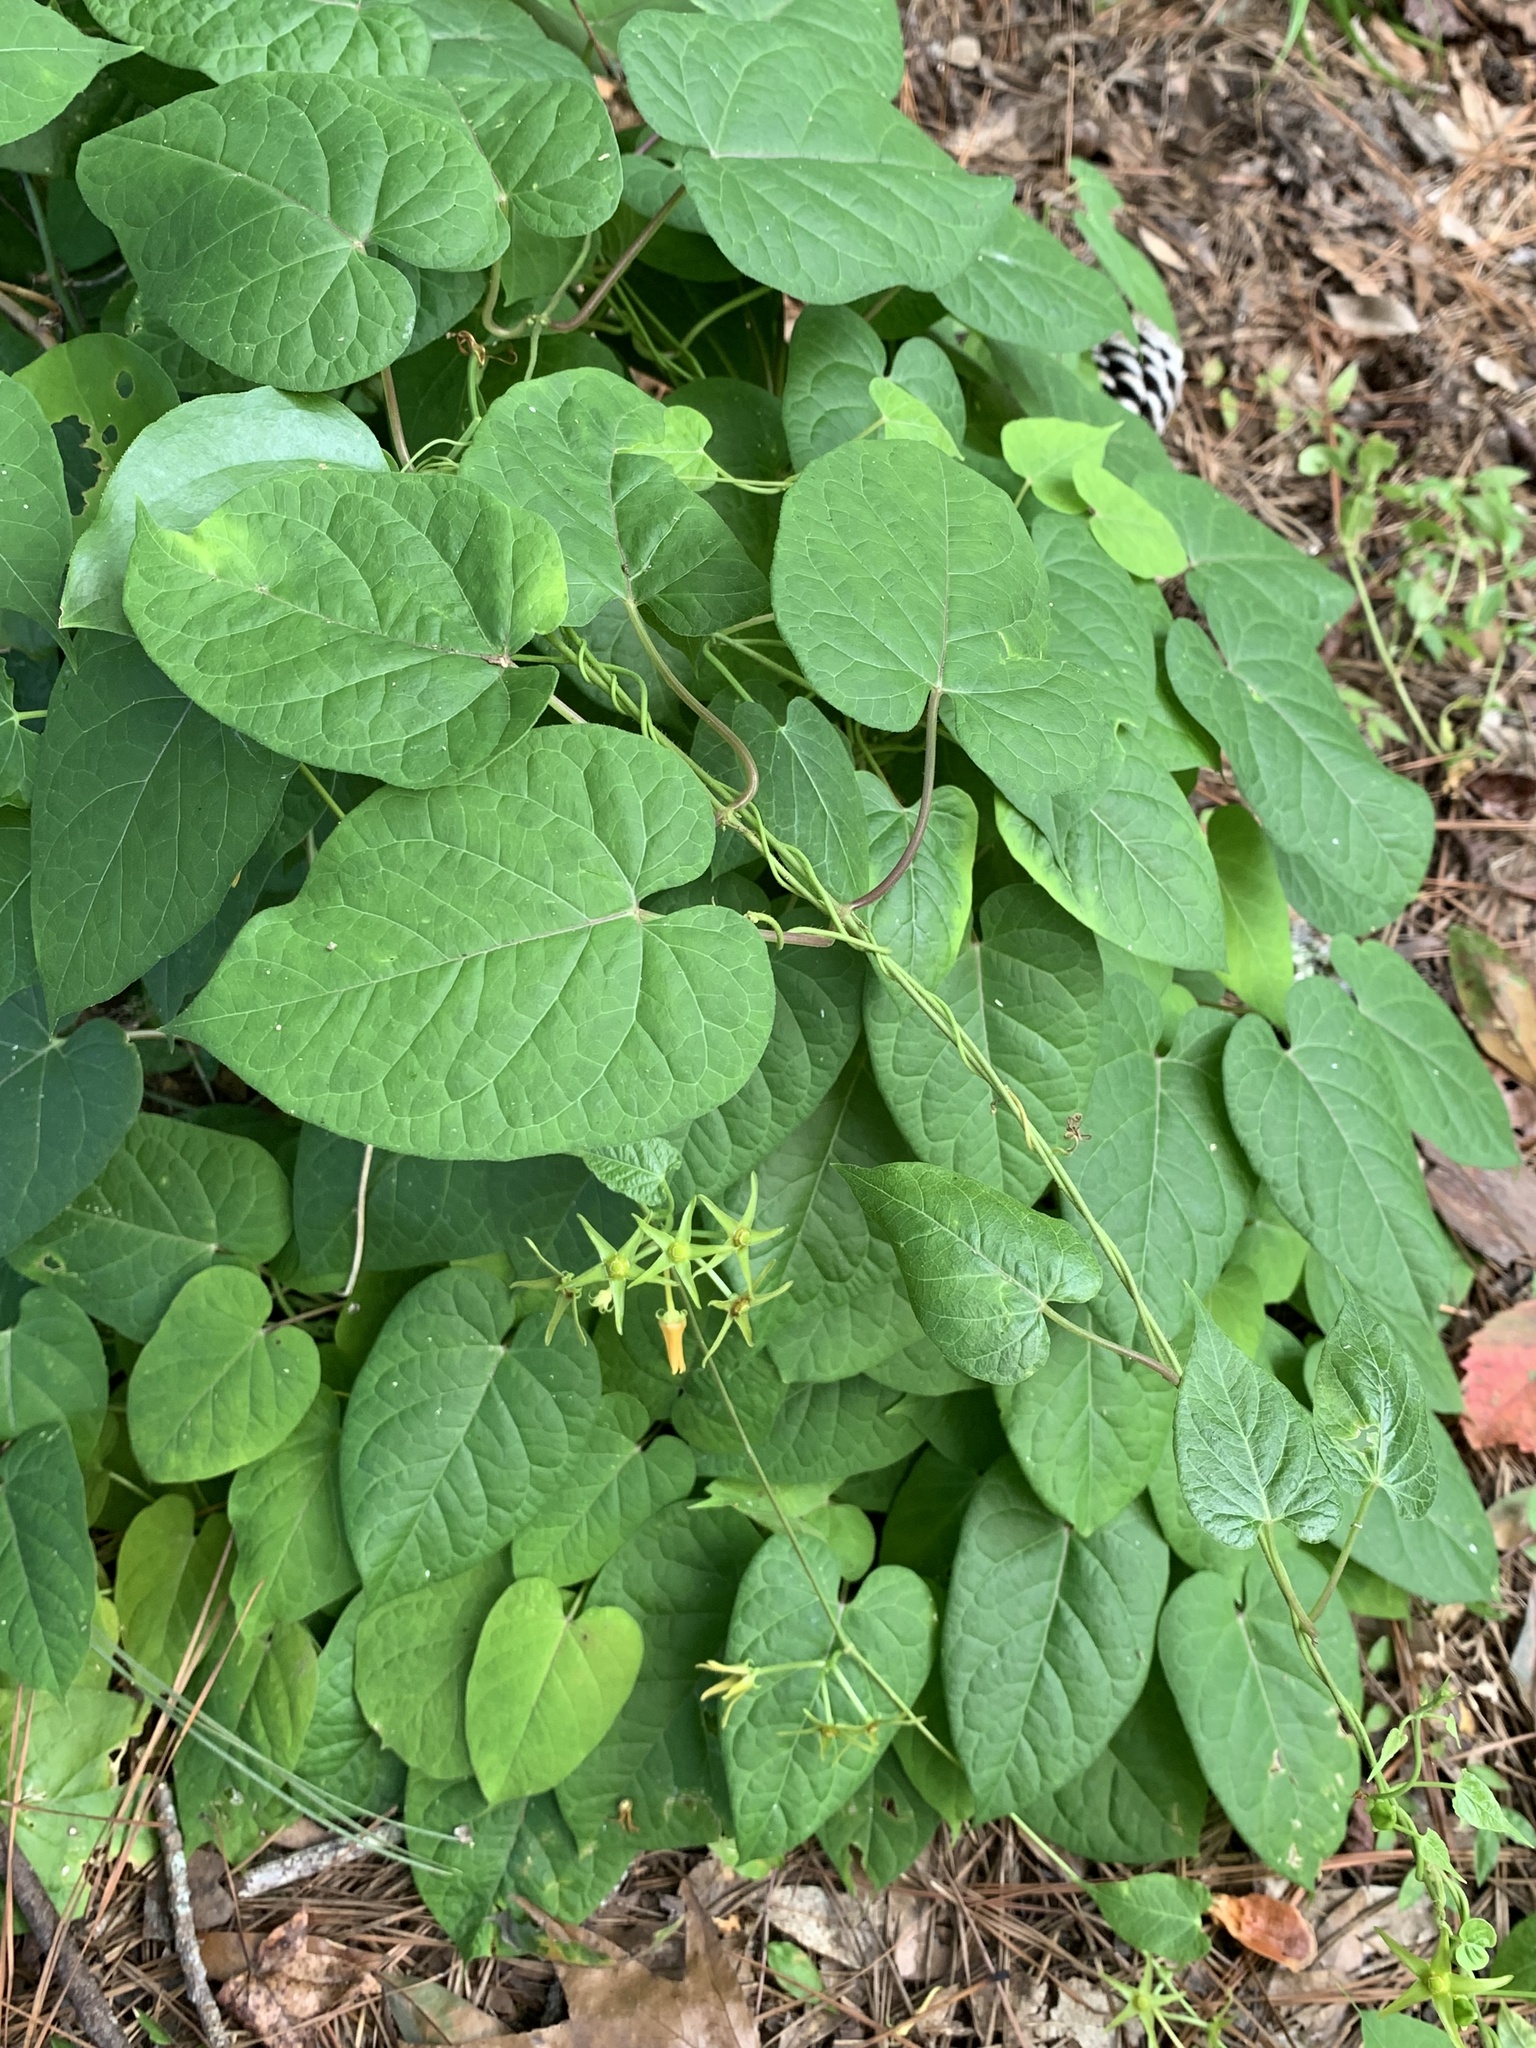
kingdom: Plantae
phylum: Tracheophyta
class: Magnoliopsida
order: Gentianales
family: Apocynaceae
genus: Gonolobus
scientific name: Gonolobus suberosus
